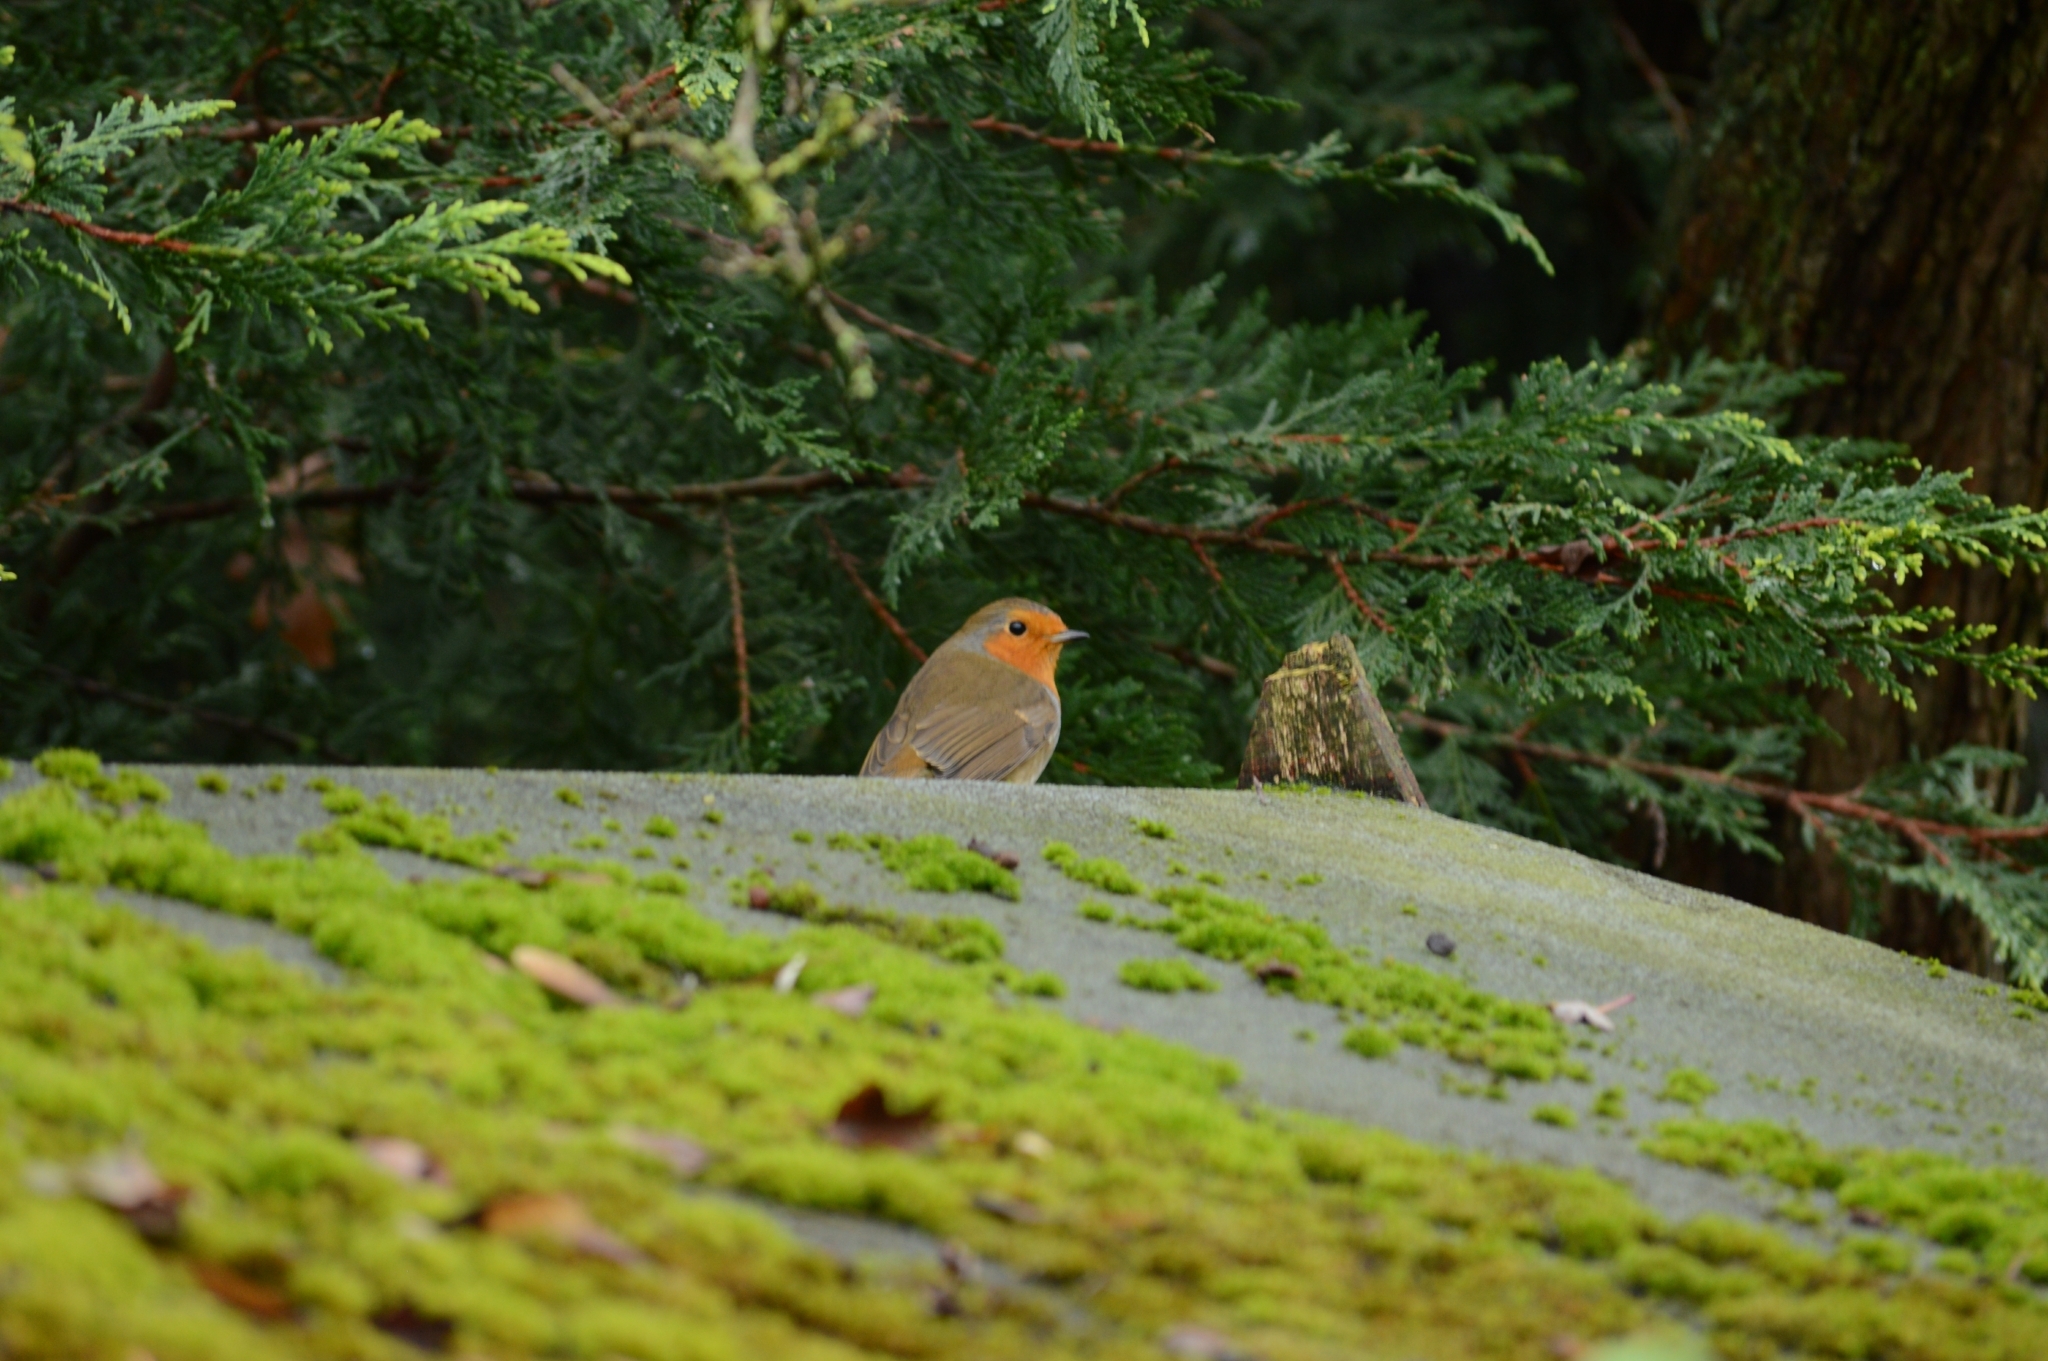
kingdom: Animalia
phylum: Chordata
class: Aves
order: Passeriformes
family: Muscicapidae
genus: Erithacus
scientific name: Erithacus rubecula
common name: European robin
